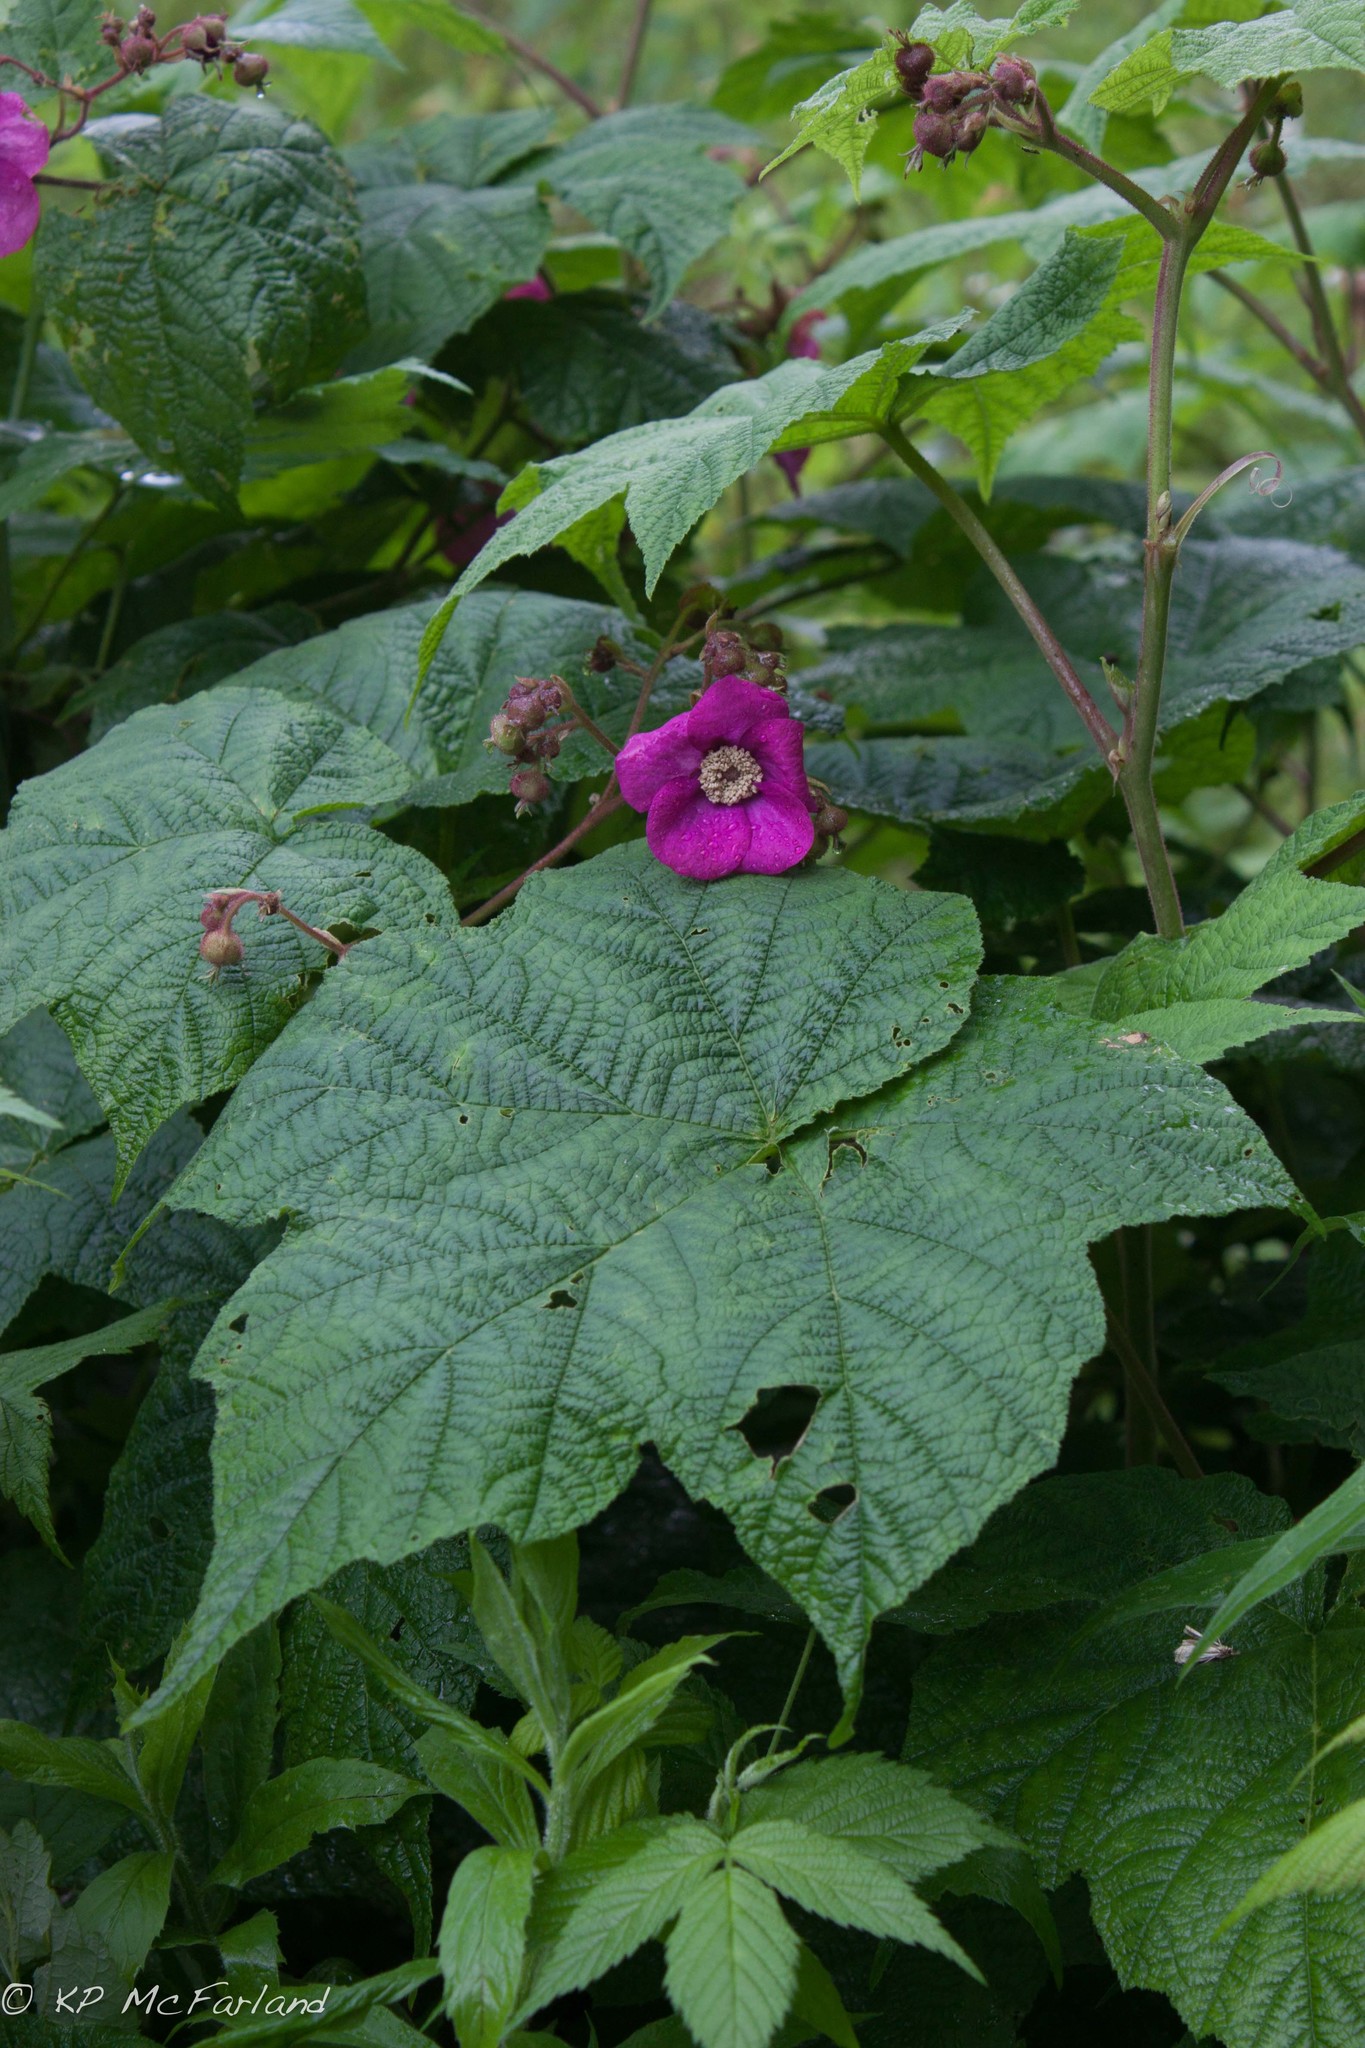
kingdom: Plantae
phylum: Tracheophyta
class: Magnoliopsida
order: Rosales
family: Rosaceae
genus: Rubus
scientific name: Rubus odoratus
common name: Purple-flowered raspberry
